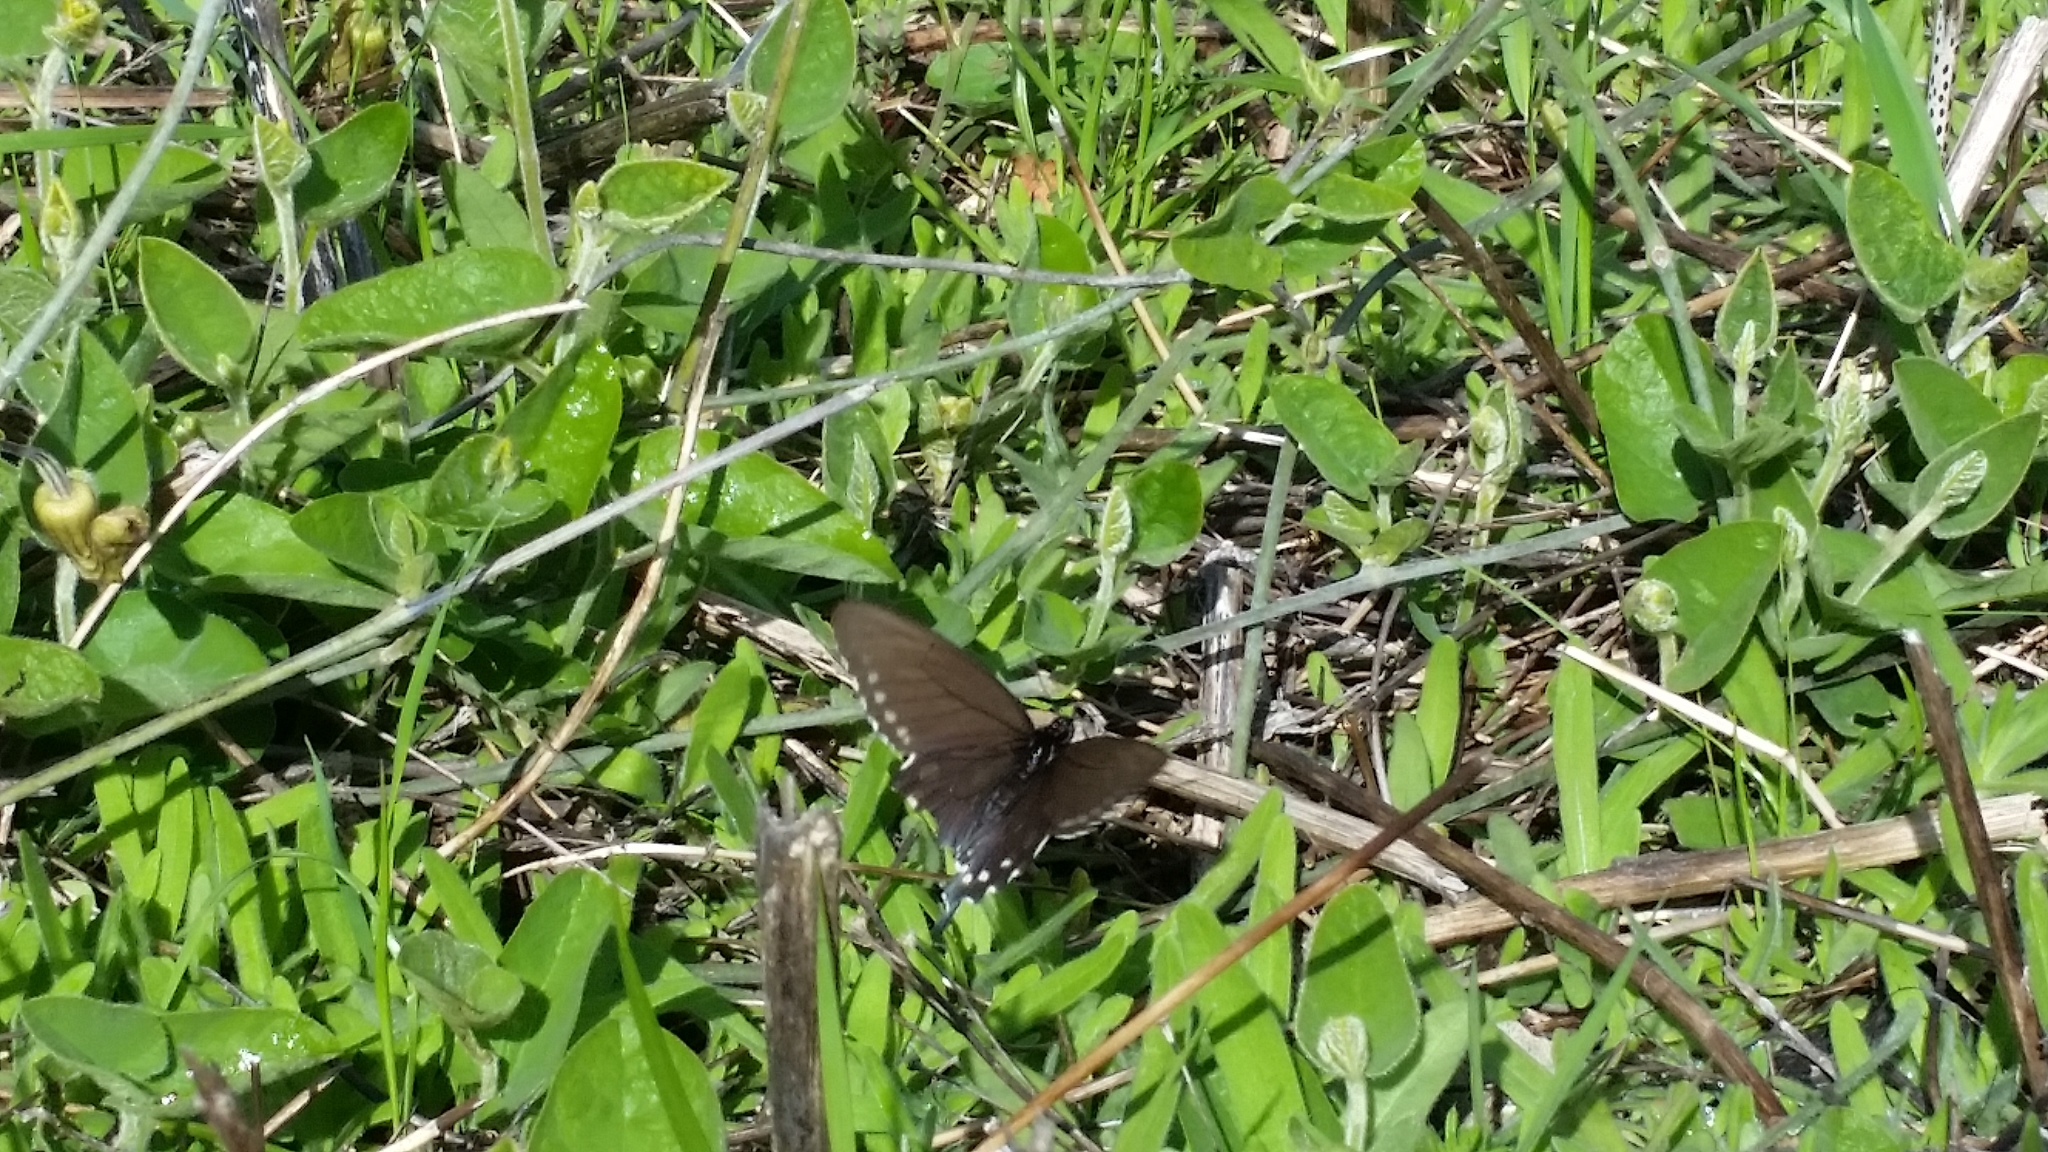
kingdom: Plantae
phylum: Tracheophyta
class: Magnoliopsida
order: Piperales
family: Aristolochiaceae
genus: Isotrema
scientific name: Isotrema californicum
